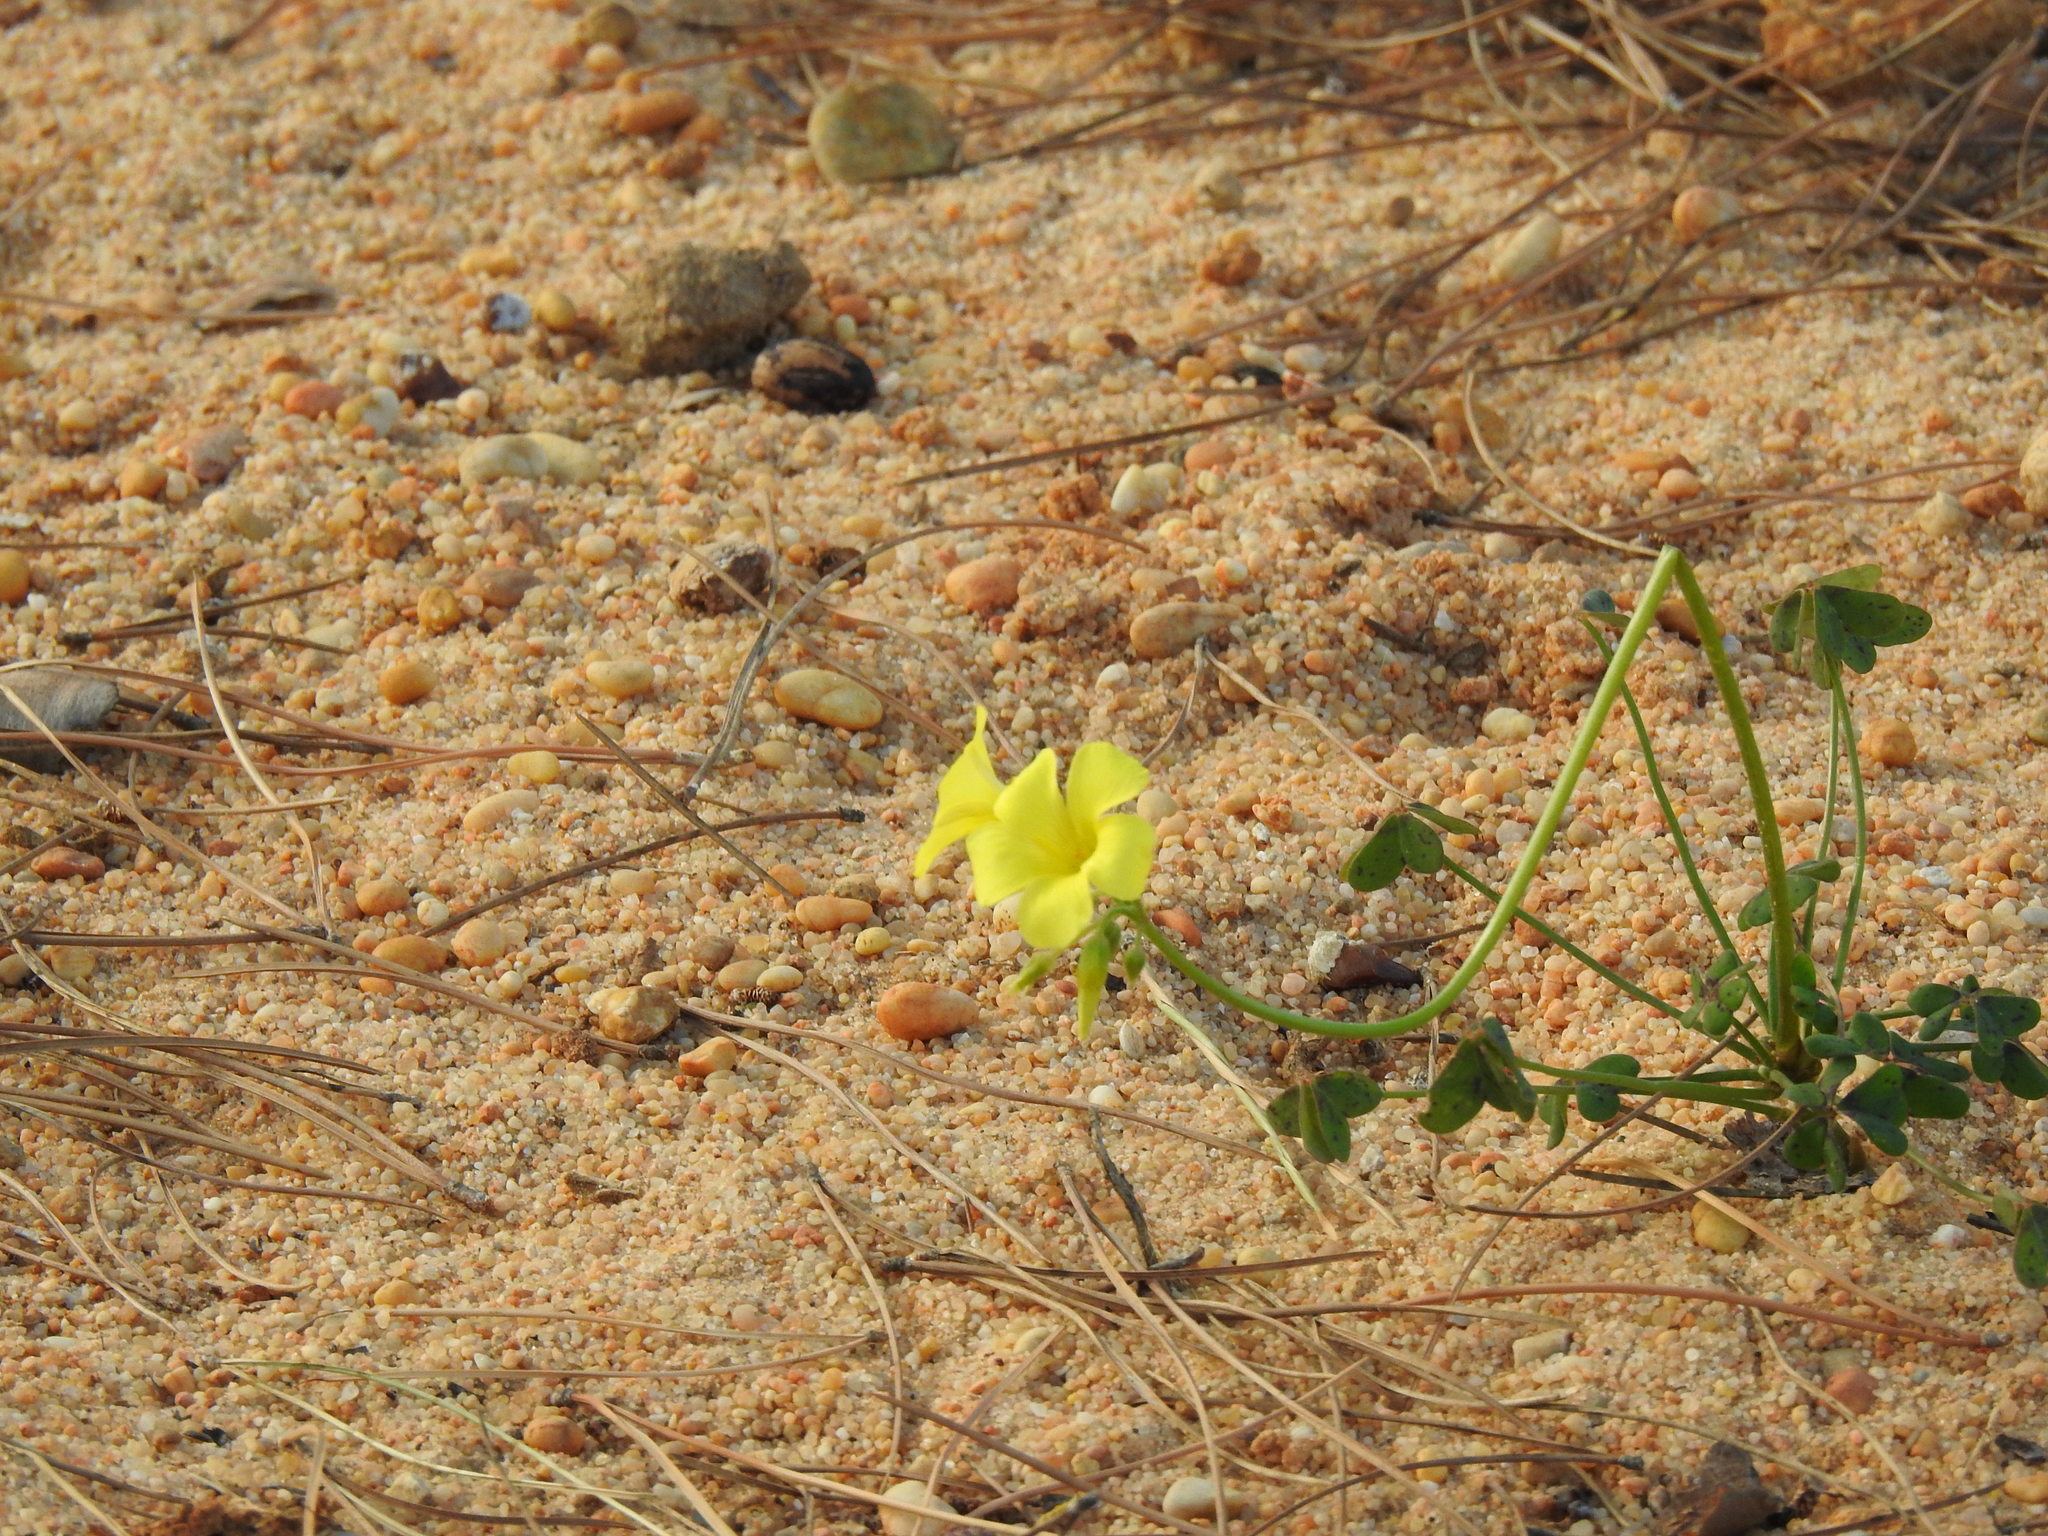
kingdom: Plantae
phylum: Tracheophyta
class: Magnoliopsida
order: Oxalidales
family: Oxalidaceae
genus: Oxalis
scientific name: Oxalis pes-caprae
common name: Bermuda-buttercup
